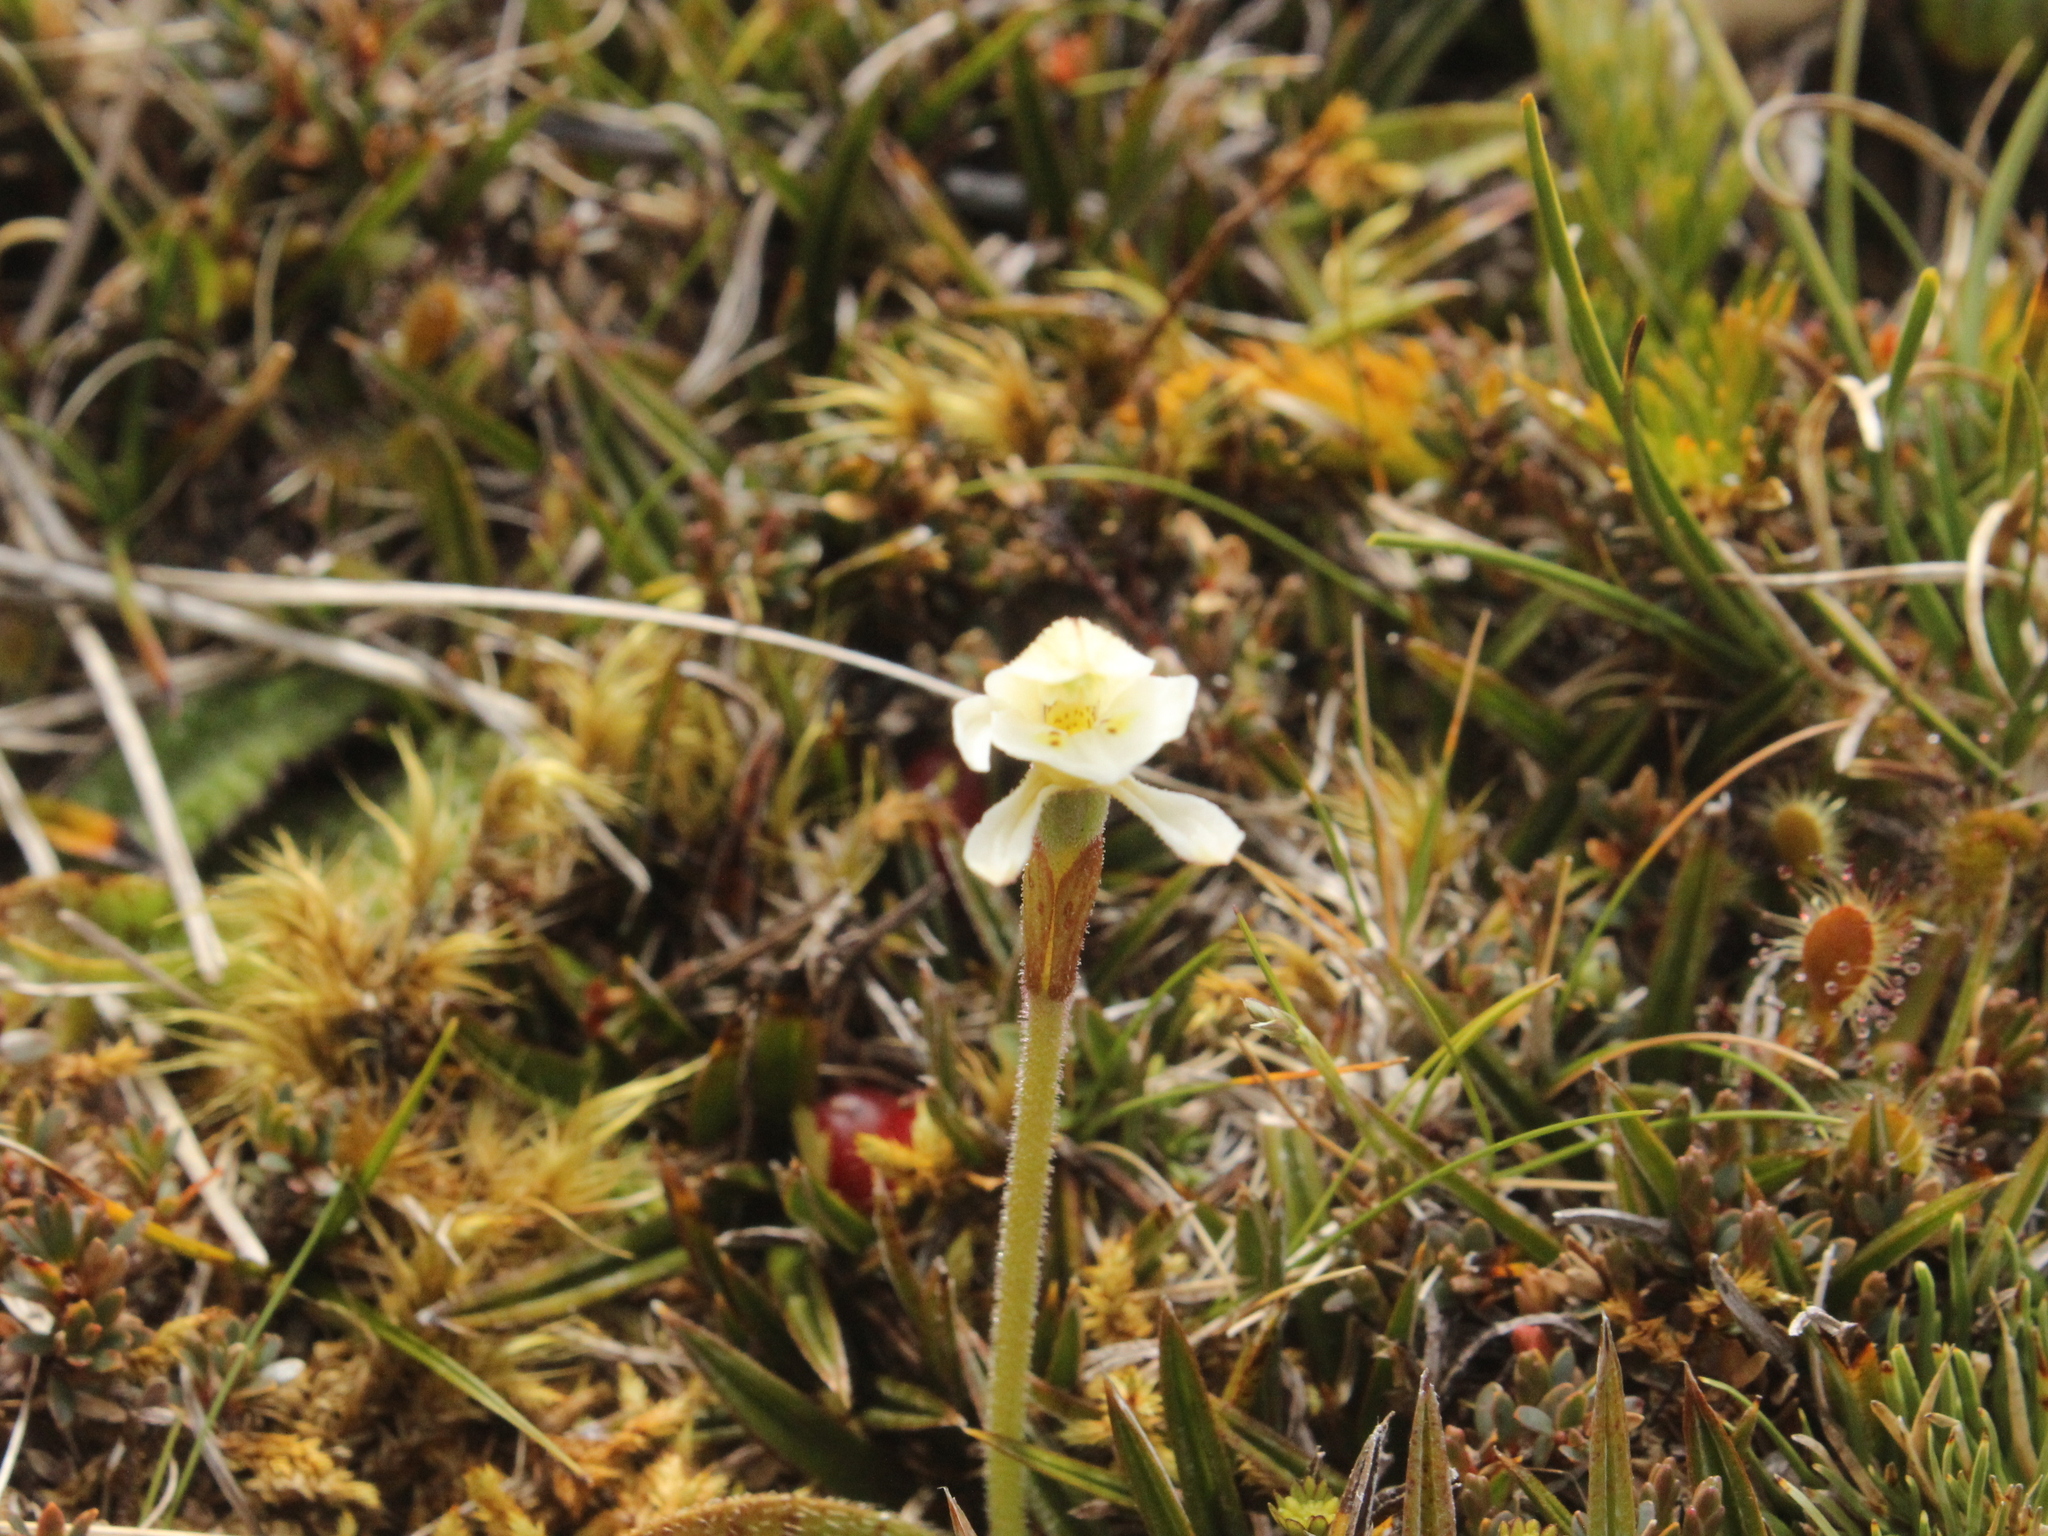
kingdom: Plantae
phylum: Tracheophyta
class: Liliopsida
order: Asparagales
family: Orchidaceae
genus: Aporostylis
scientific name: Aporostylis bifolia
